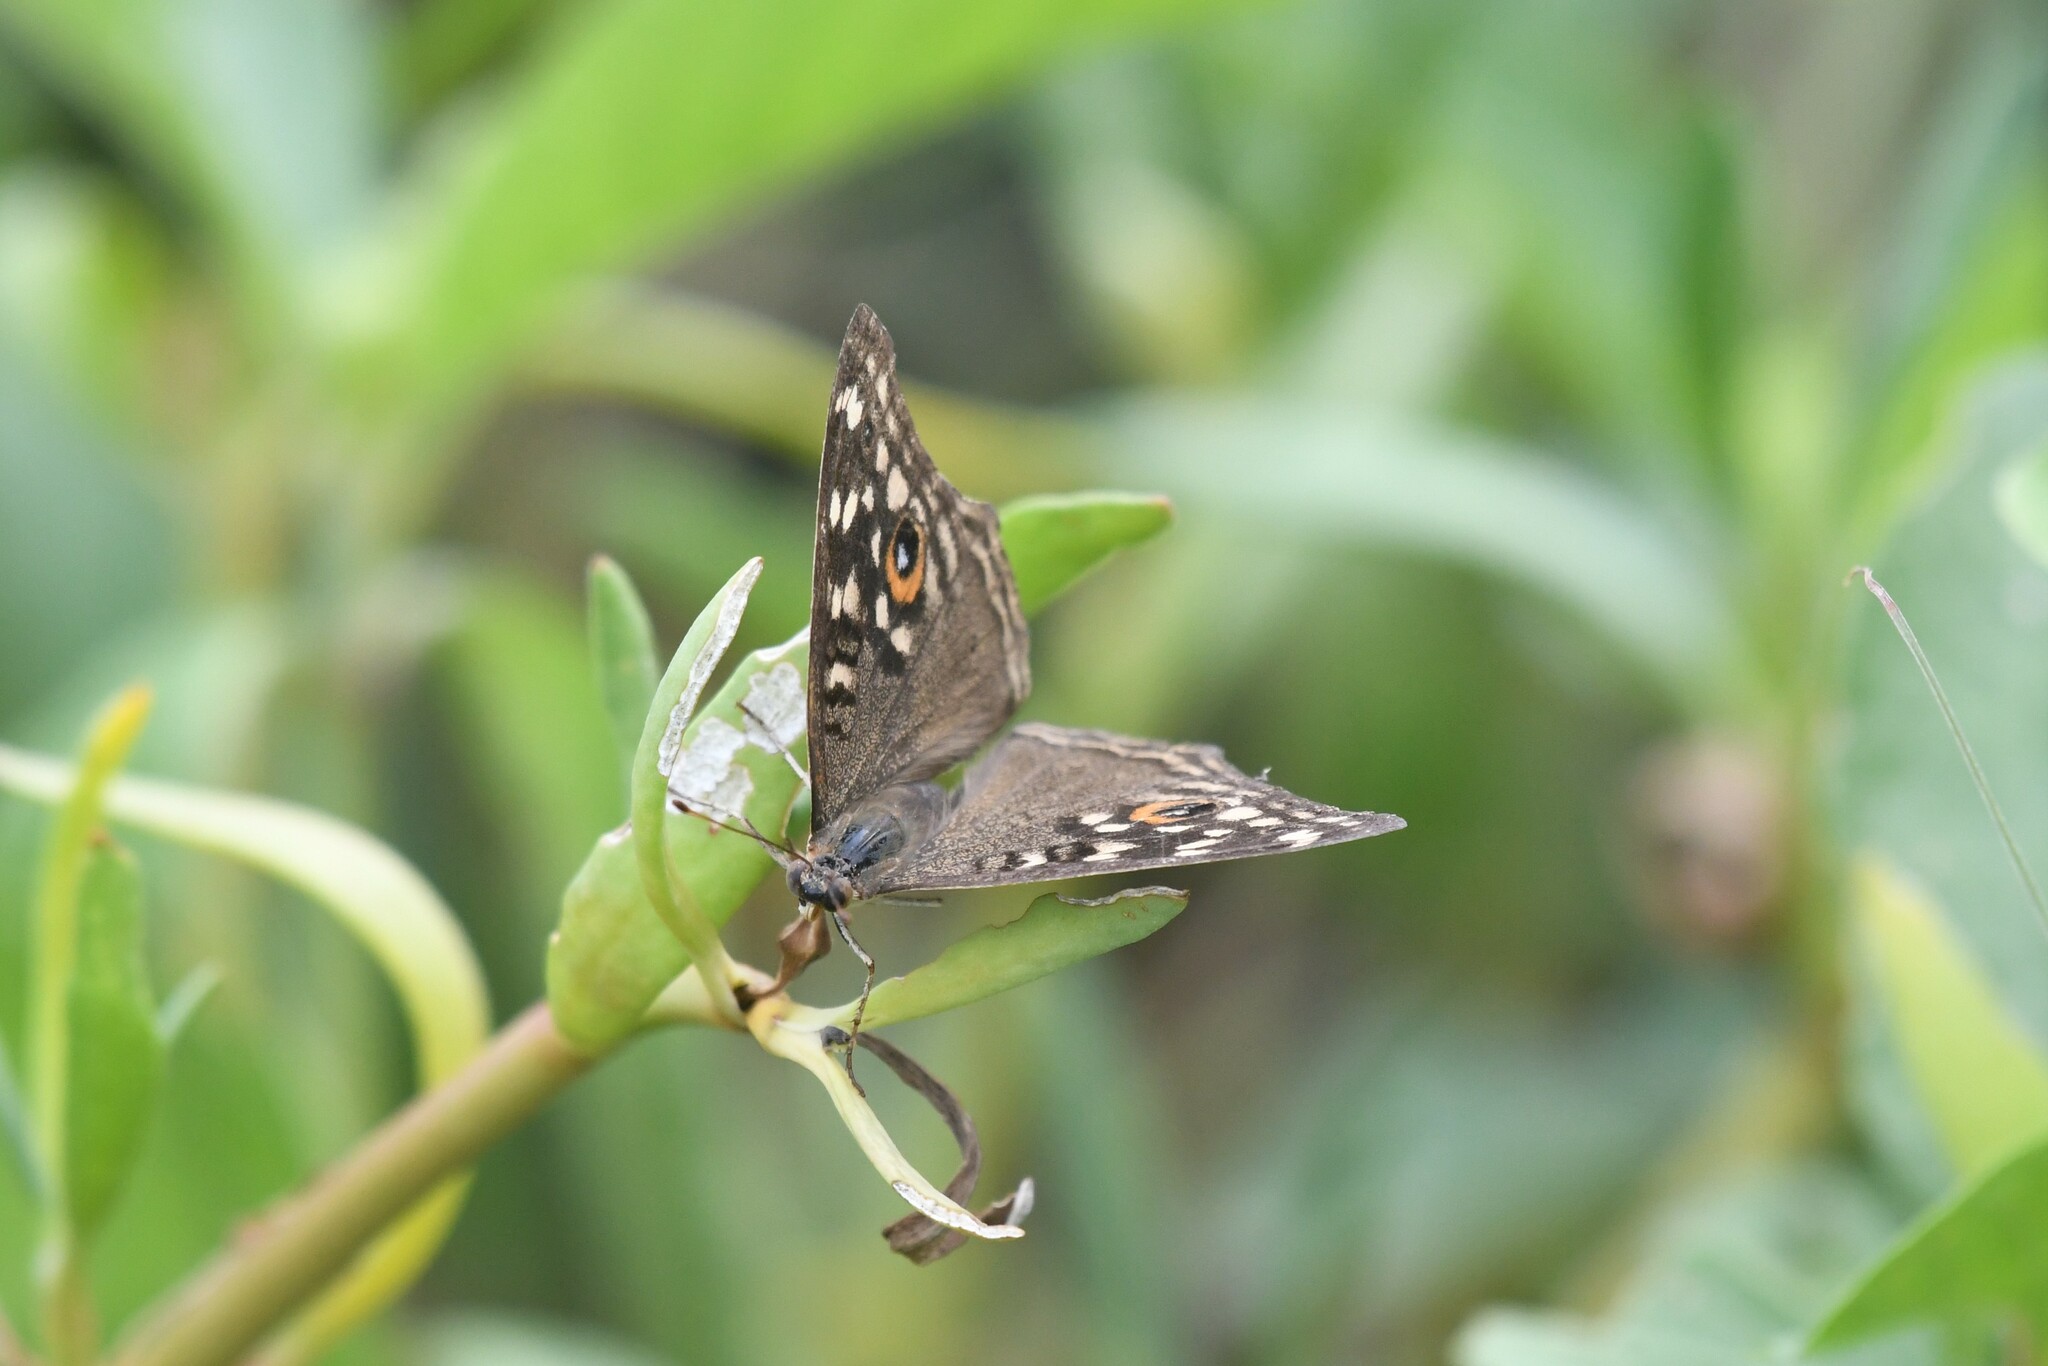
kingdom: Animalia
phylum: Arthropoda
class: Insecta
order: Lepidoptera
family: Nymphalidae
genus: Junonia
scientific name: Junonia lemonias
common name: Lemon pansy
